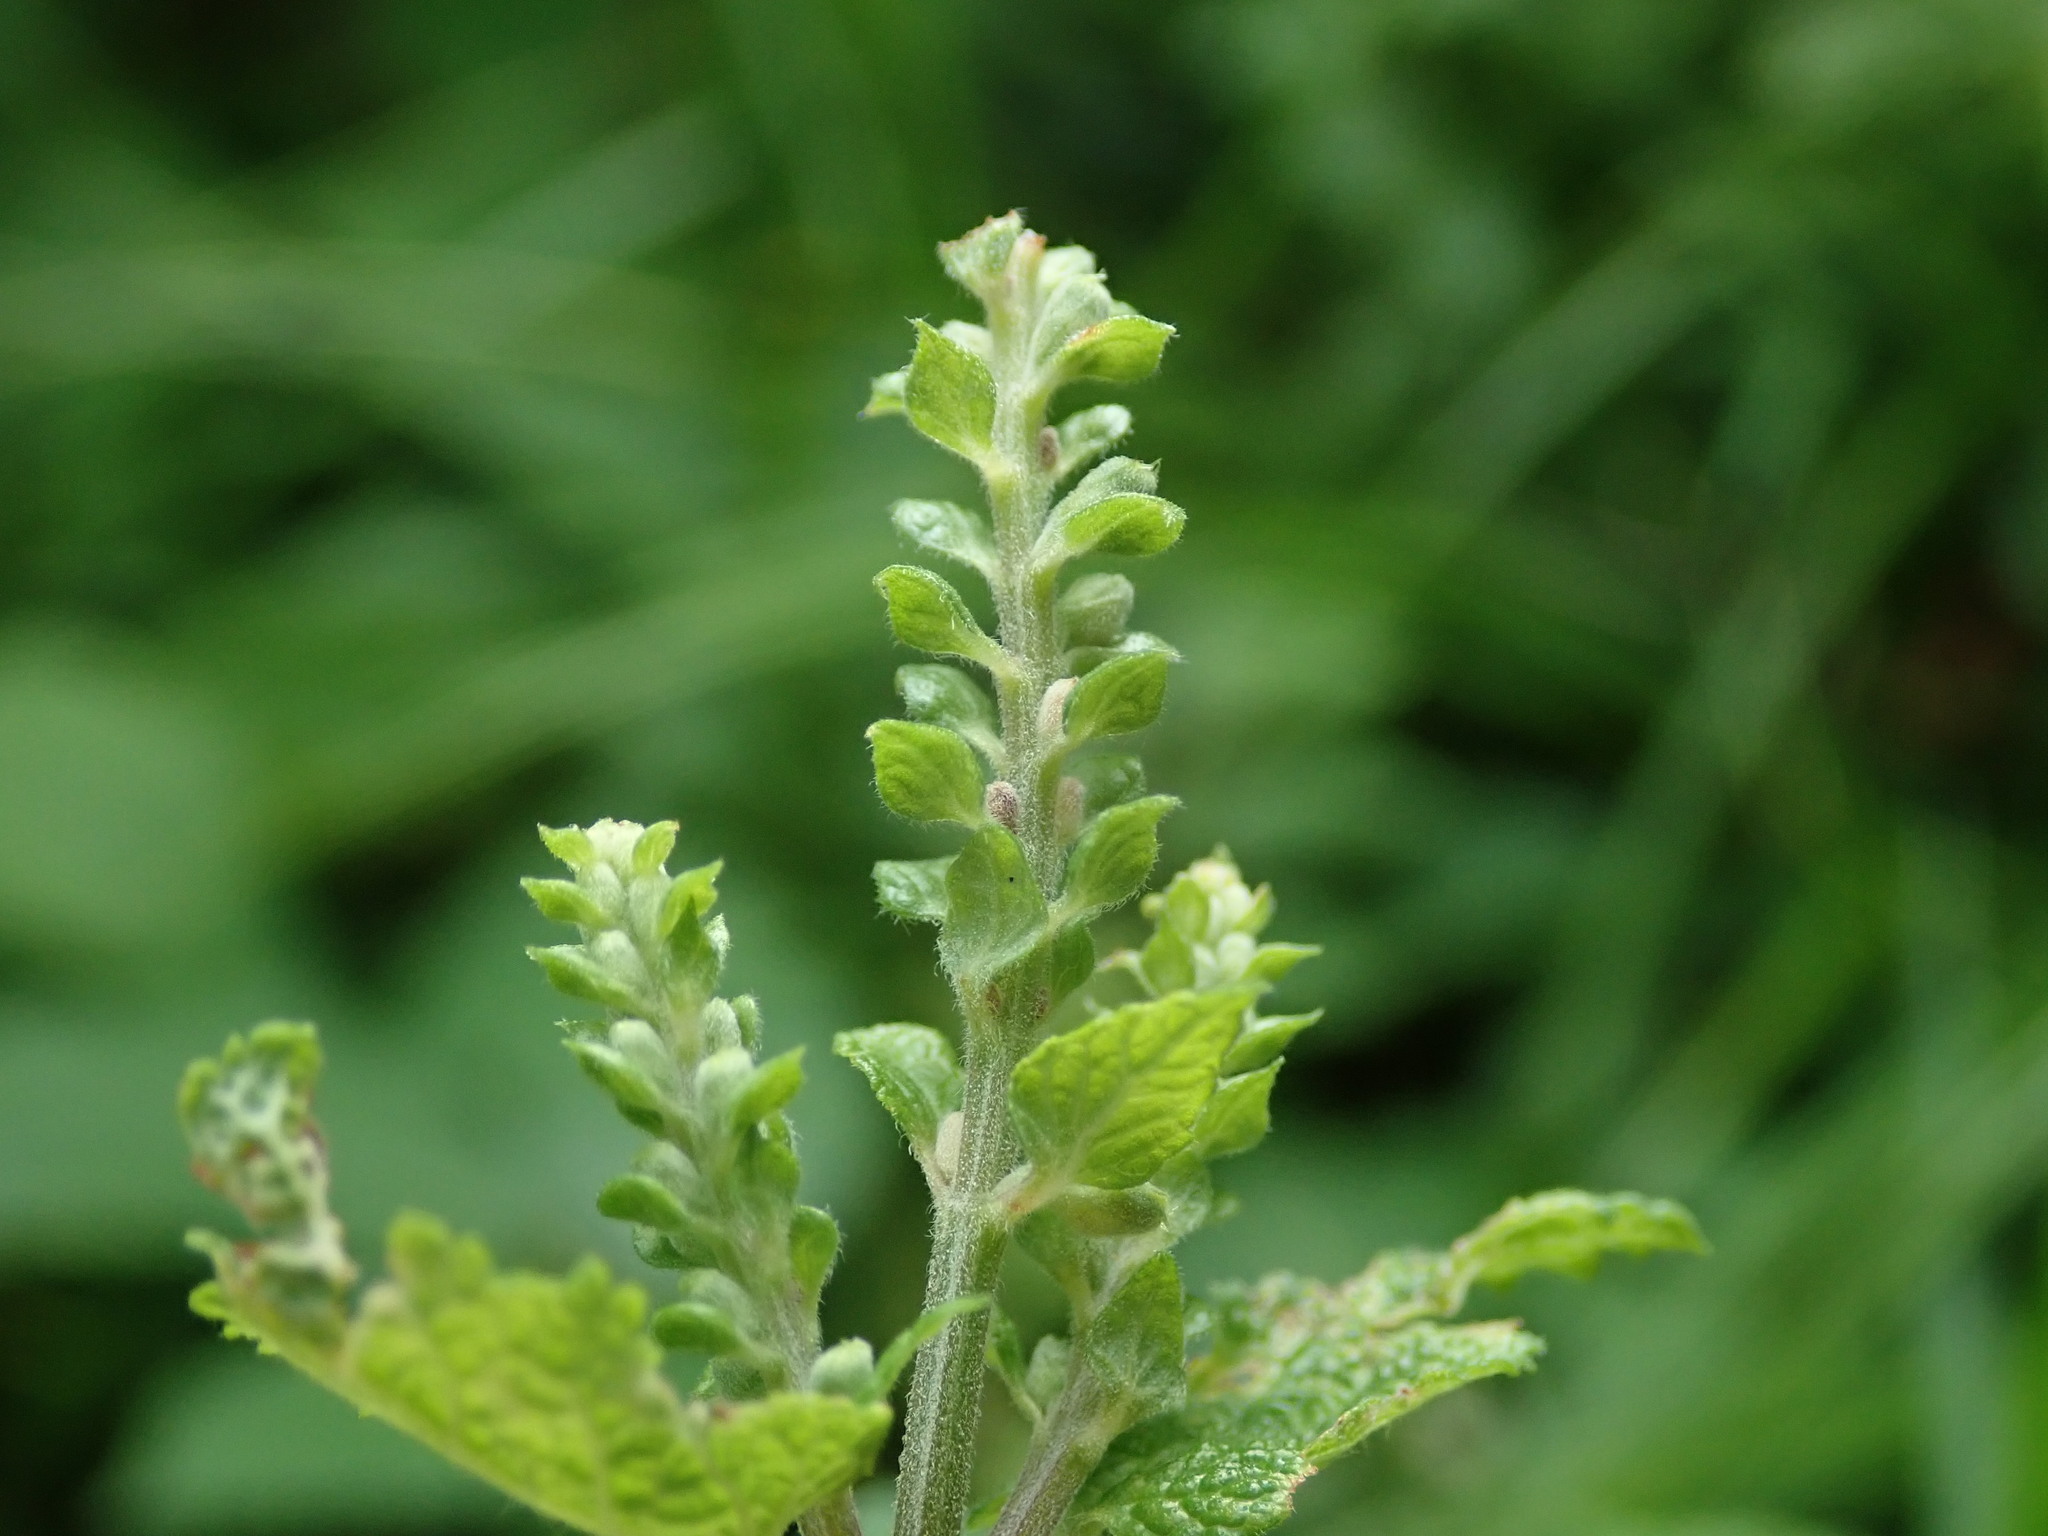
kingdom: Plantae
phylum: Tracheophyta
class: Magnoliopsida
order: Lamiales
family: Lamiaceae
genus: Teucrium
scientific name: Teucrium scorodonia
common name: Woodland germander
